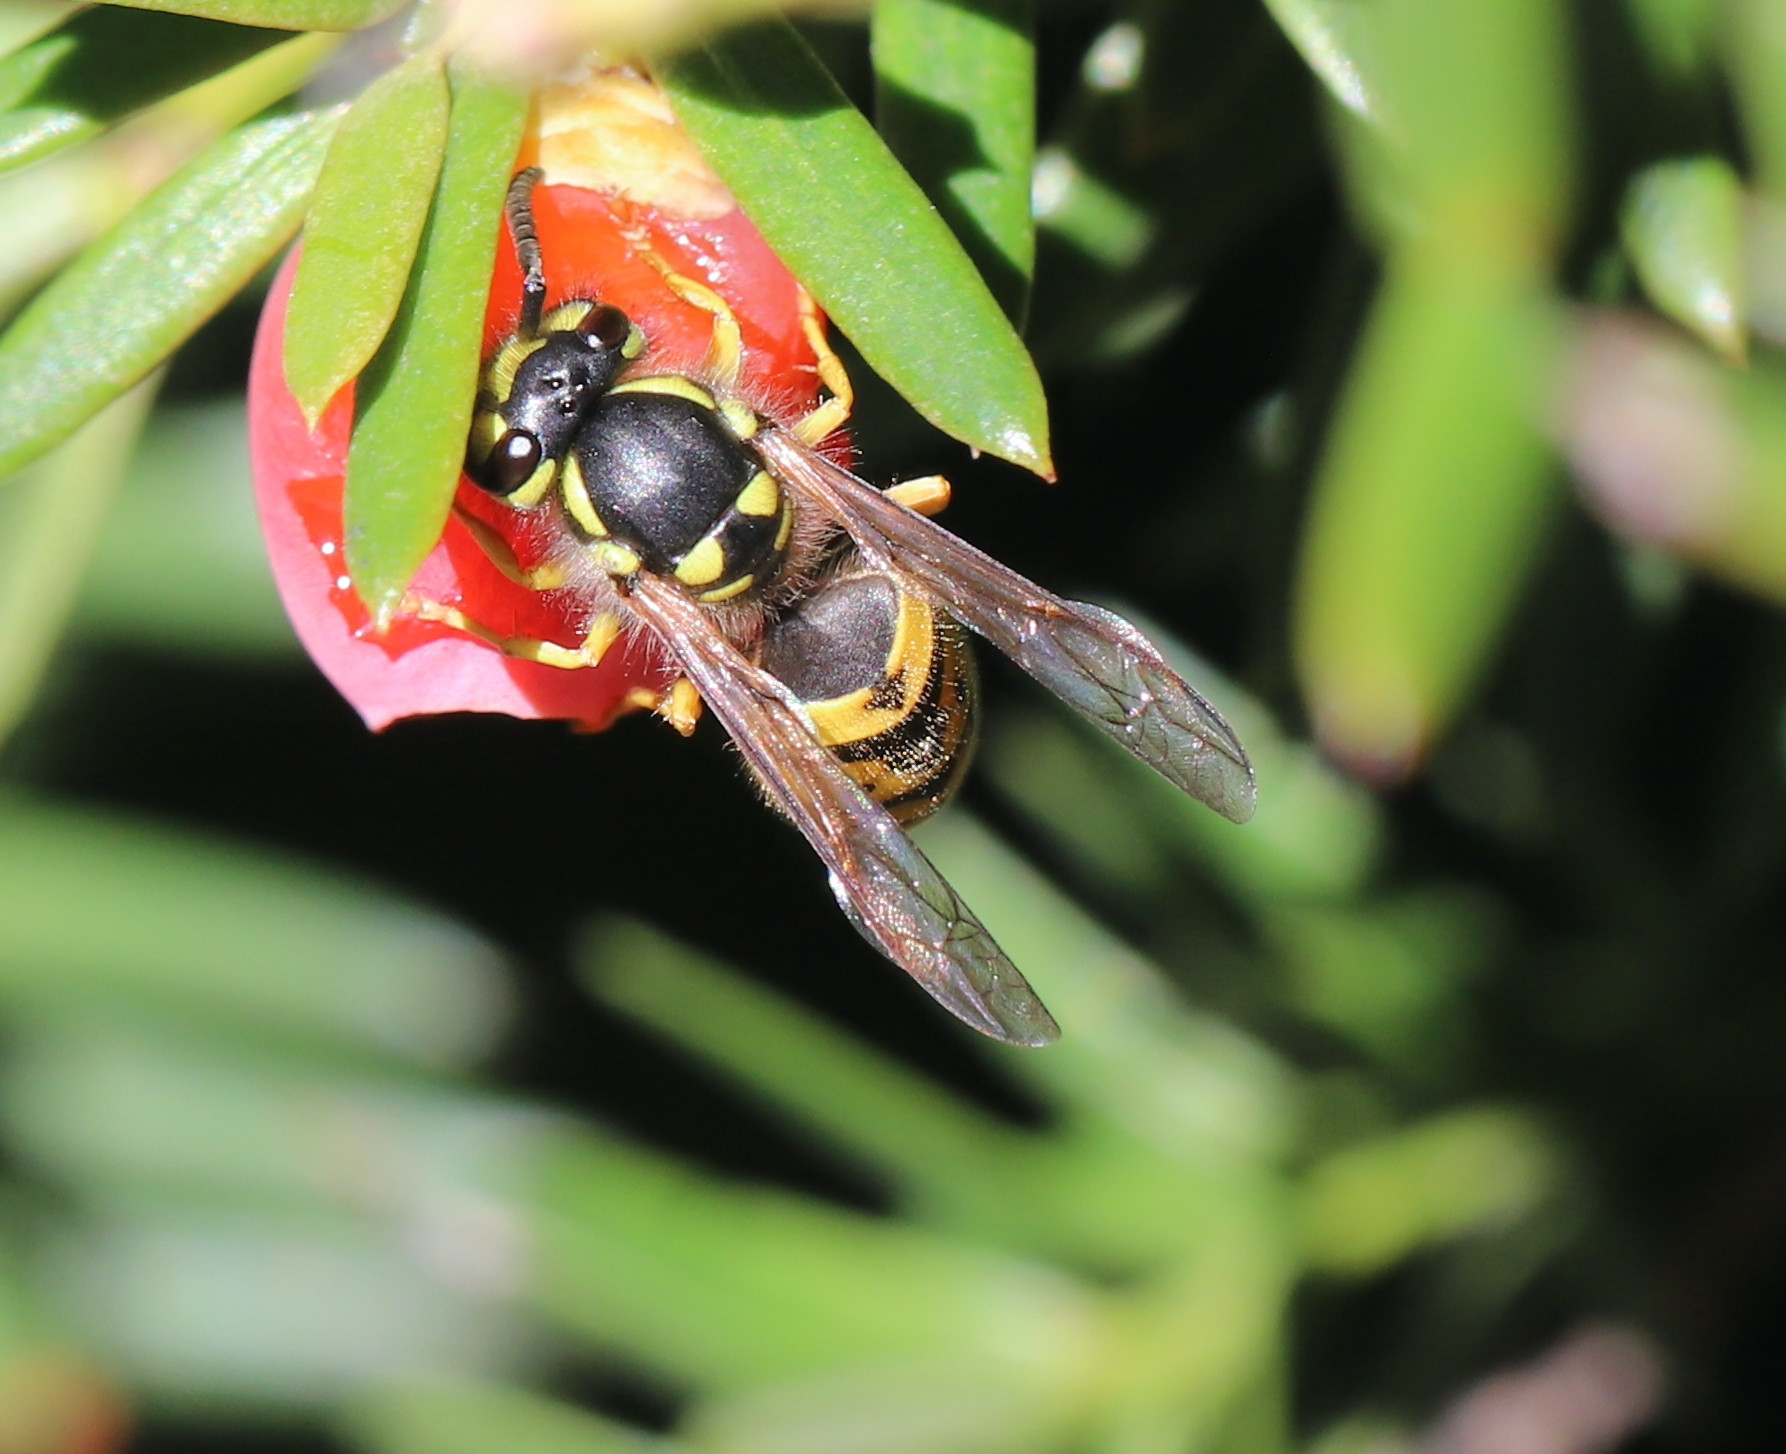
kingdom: Animalia
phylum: Arthropoda
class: Insecta
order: Hymenoptera
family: Vespidae
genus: Vespula
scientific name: Vespula germanica
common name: German wasp
